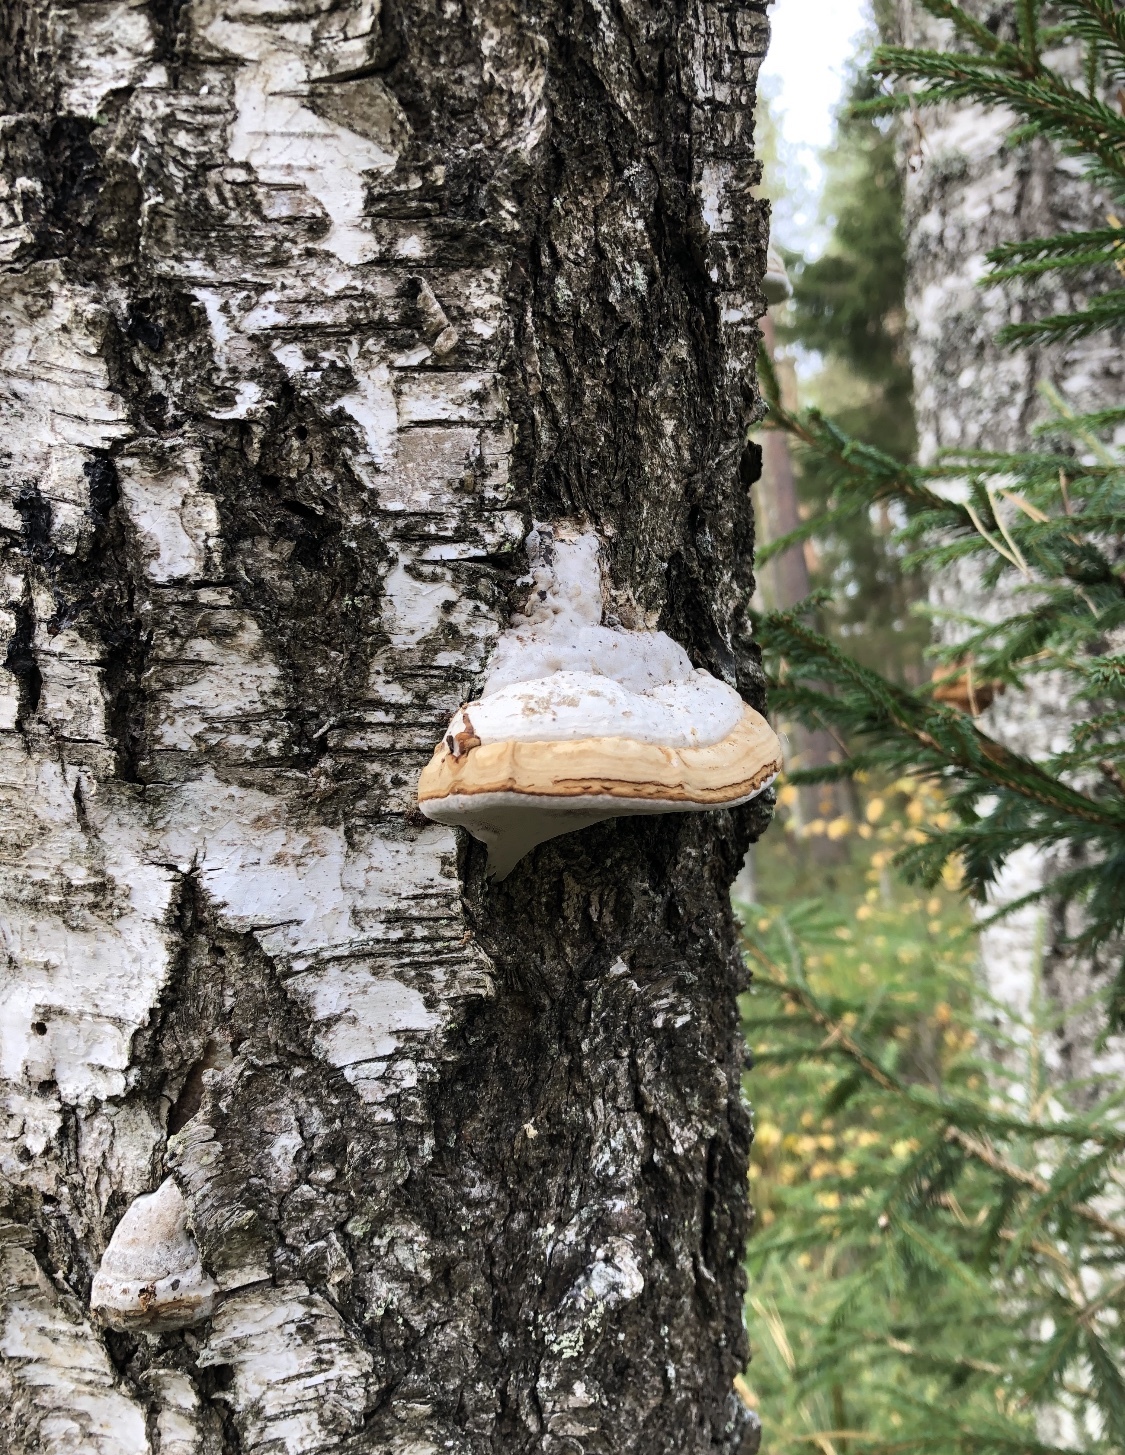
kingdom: Fungi
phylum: Basidiomycota
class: Agaricomycetes
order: Polyporales
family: Polyporaceae
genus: Fomes
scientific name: Fomes fomentarius
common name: Hoof fungus
